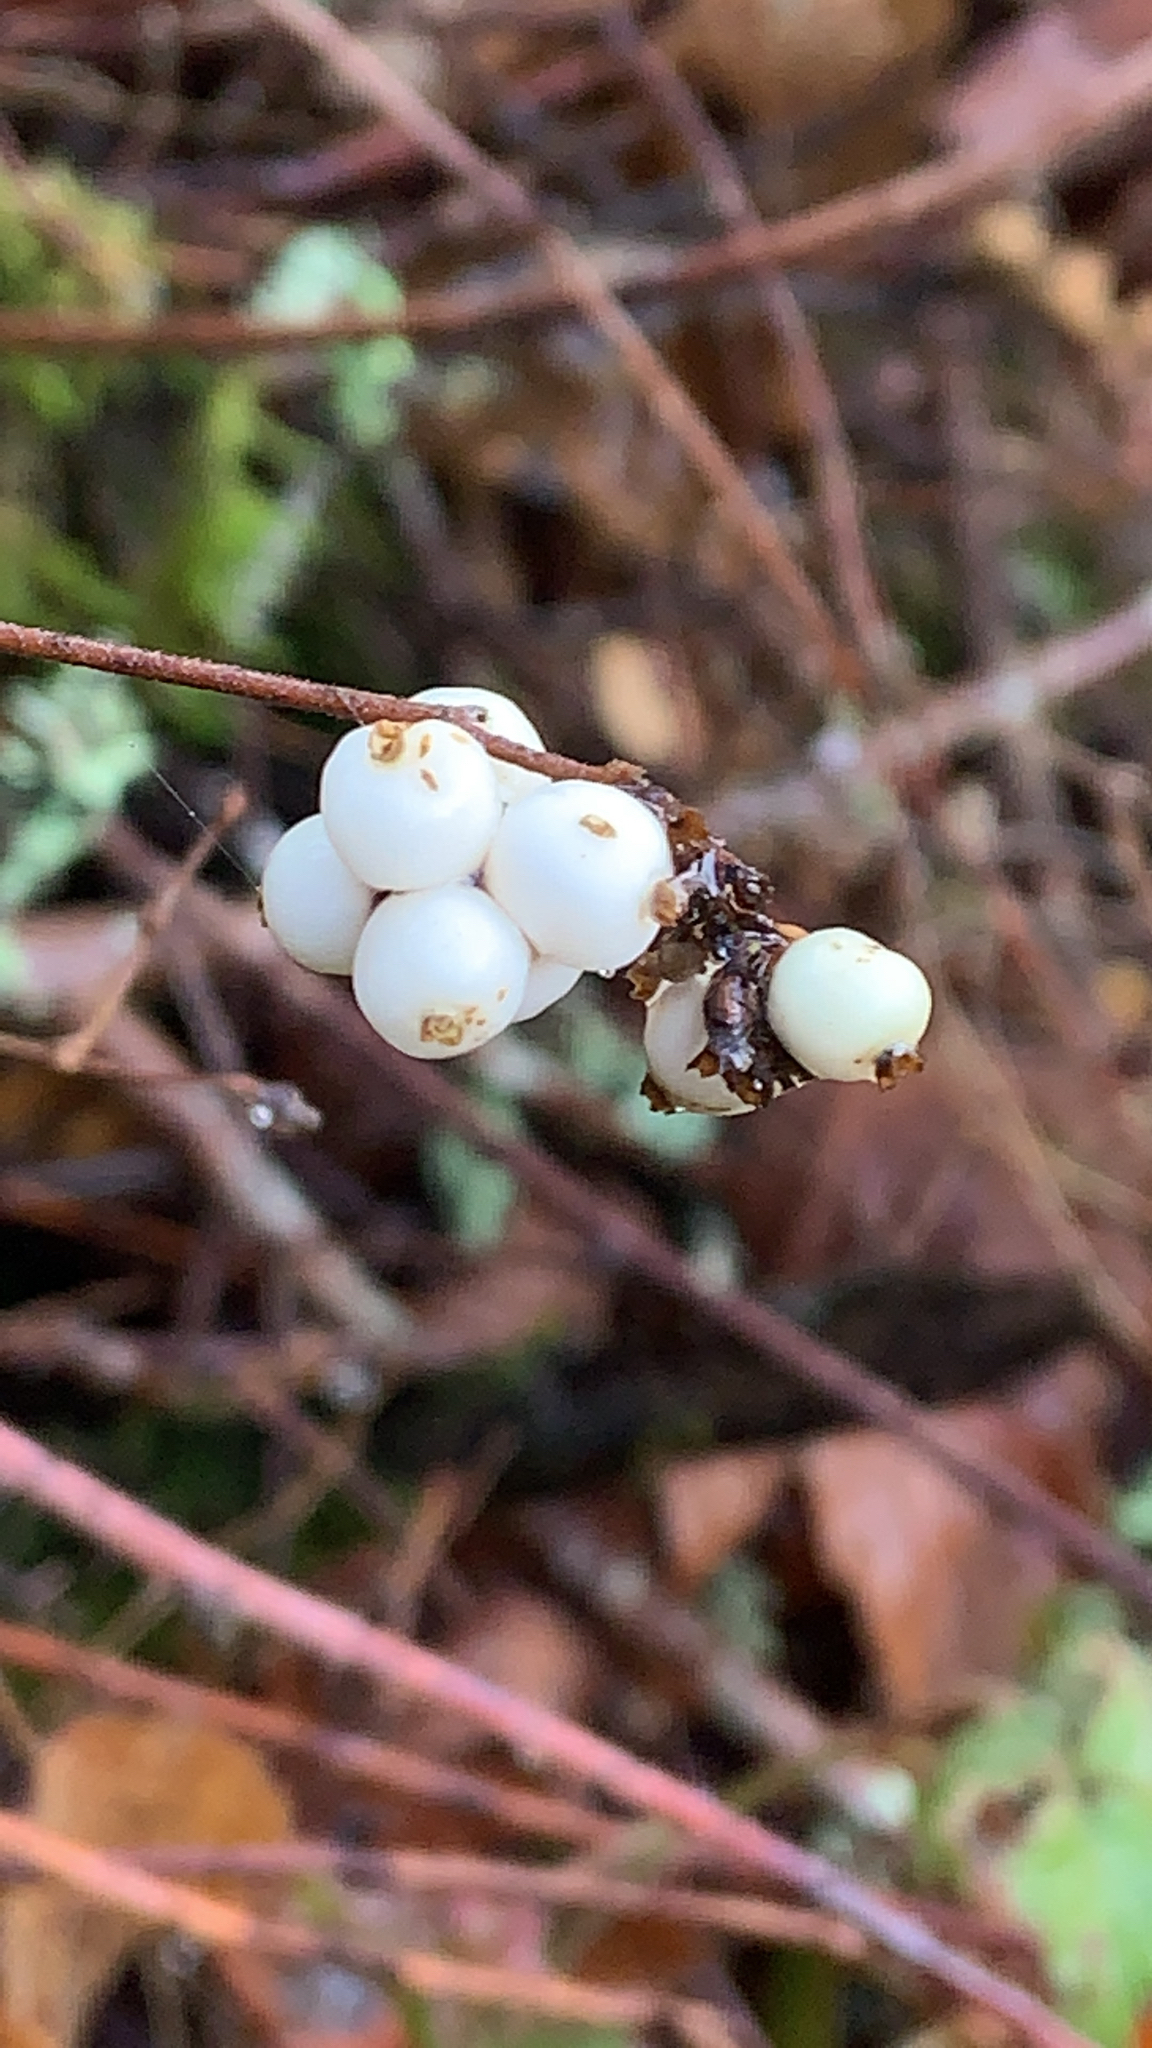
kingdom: Plantae
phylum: Tracheophyta
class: Magnoliopsida
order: Dipsacales
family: Caprifoliaceae
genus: Symphoricarpos
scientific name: Symphoricarpos albus
